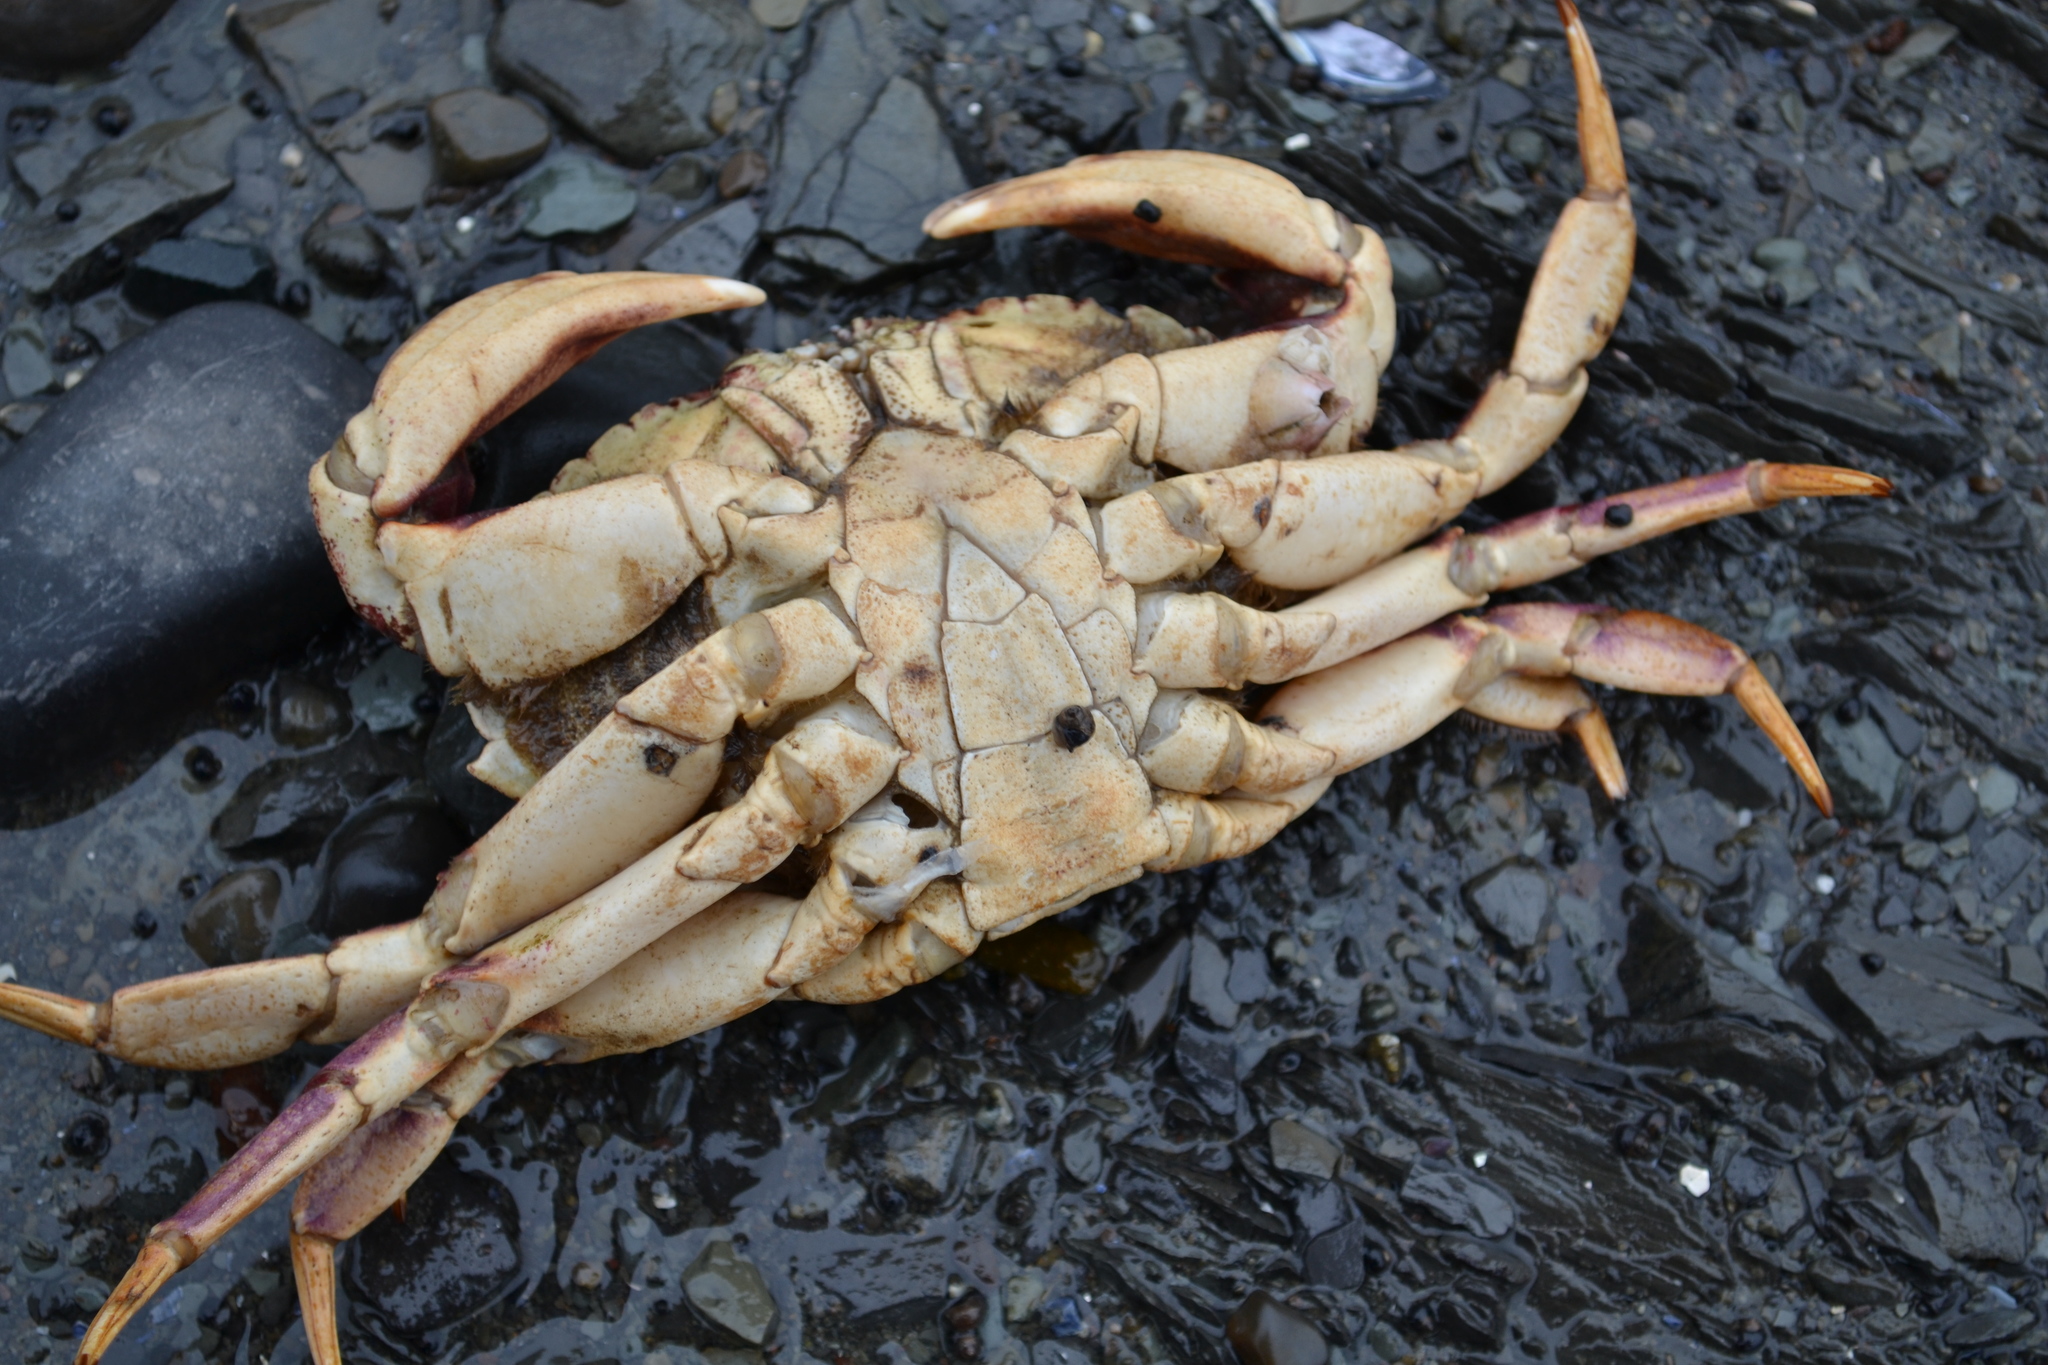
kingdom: Animalia
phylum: Arthropoda
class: Malacostraca
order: Decapoda
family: Cancridae
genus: Cancer
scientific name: Cancer irroratus
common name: Atlantic rock crab
